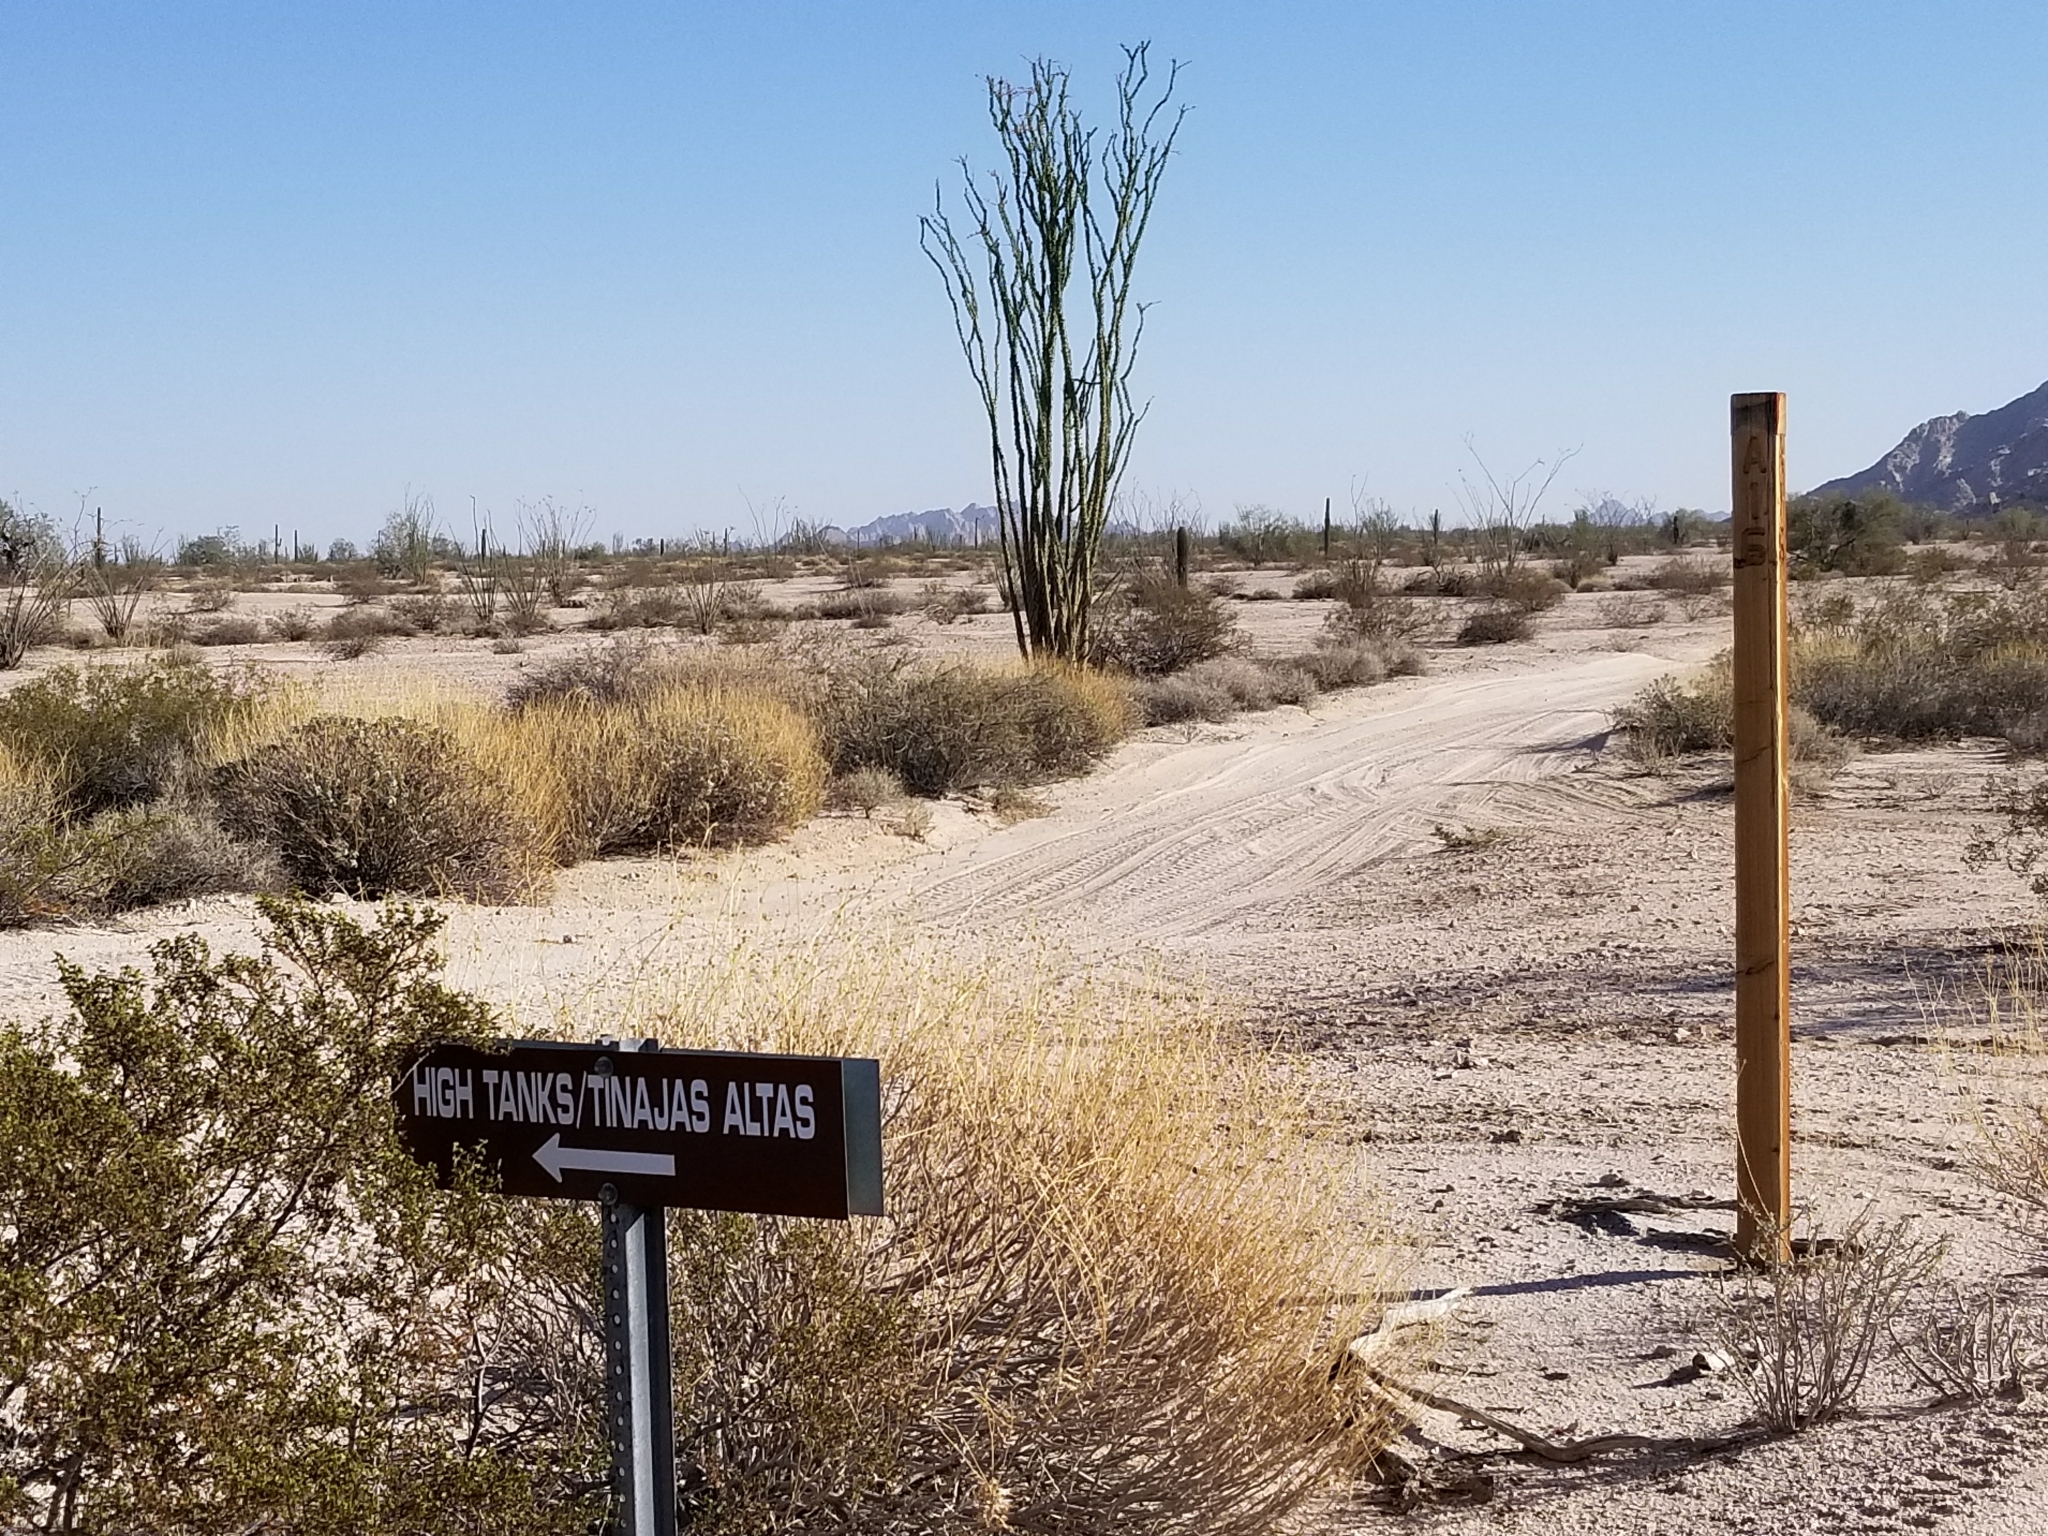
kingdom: Plantae
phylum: Tracheophyta
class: Magnoliopsida
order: Ericales
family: Fouquieriaceae
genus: Fouquieria
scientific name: Fouquieria splendens
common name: Vine-cactus
